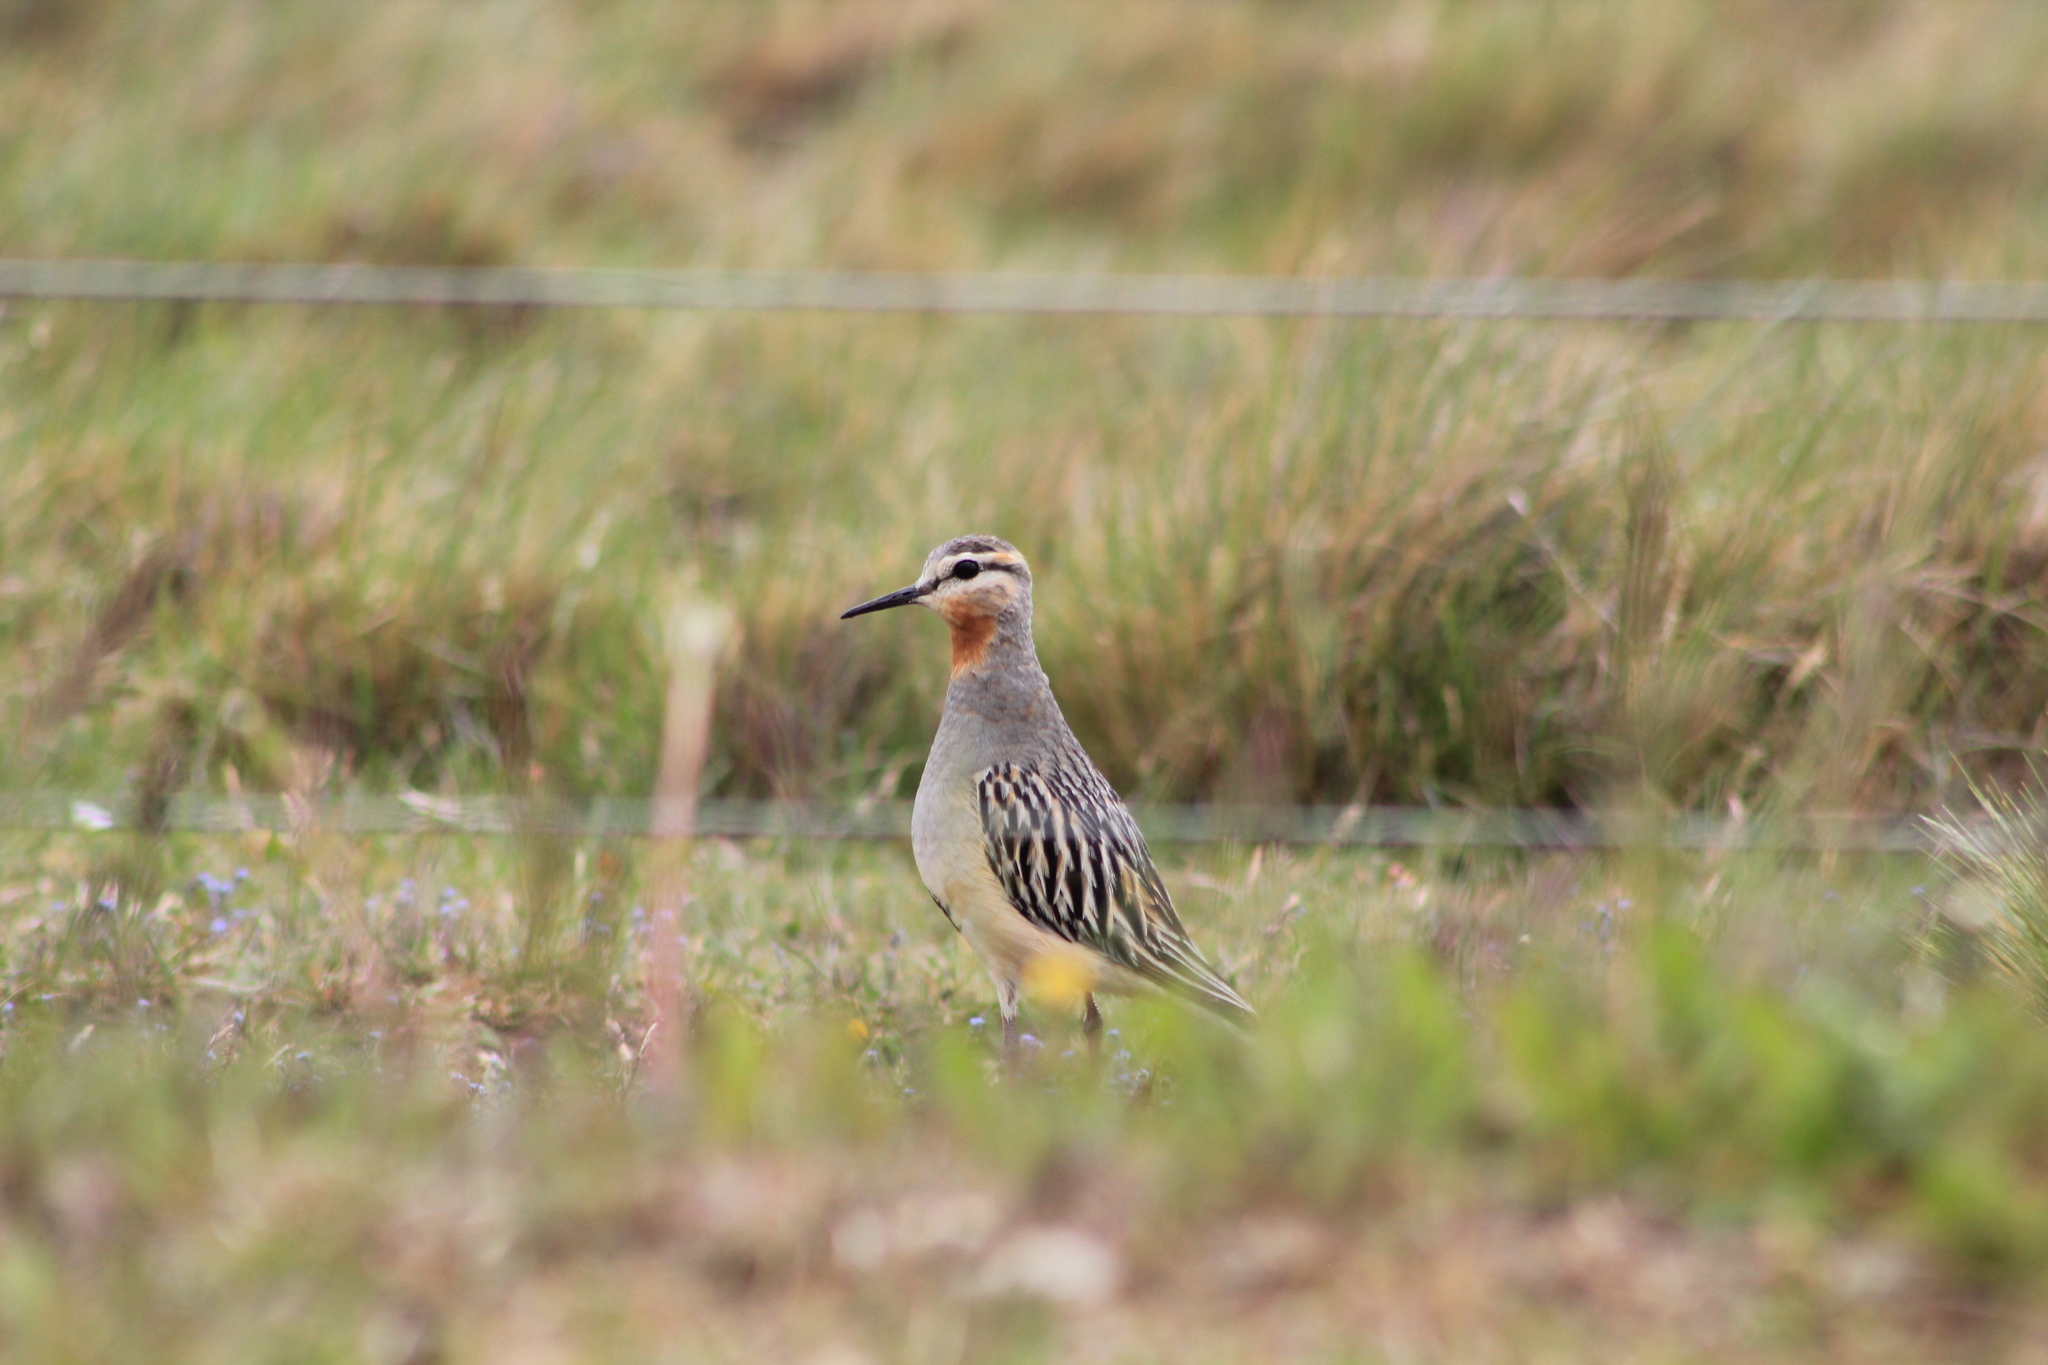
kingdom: Animalia
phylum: Chordata
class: Aves
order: Charadriiformes
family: Charadriidae
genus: Oreopholus
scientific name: Oreopholus ruficollis
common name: Tawny-throated dotterel
